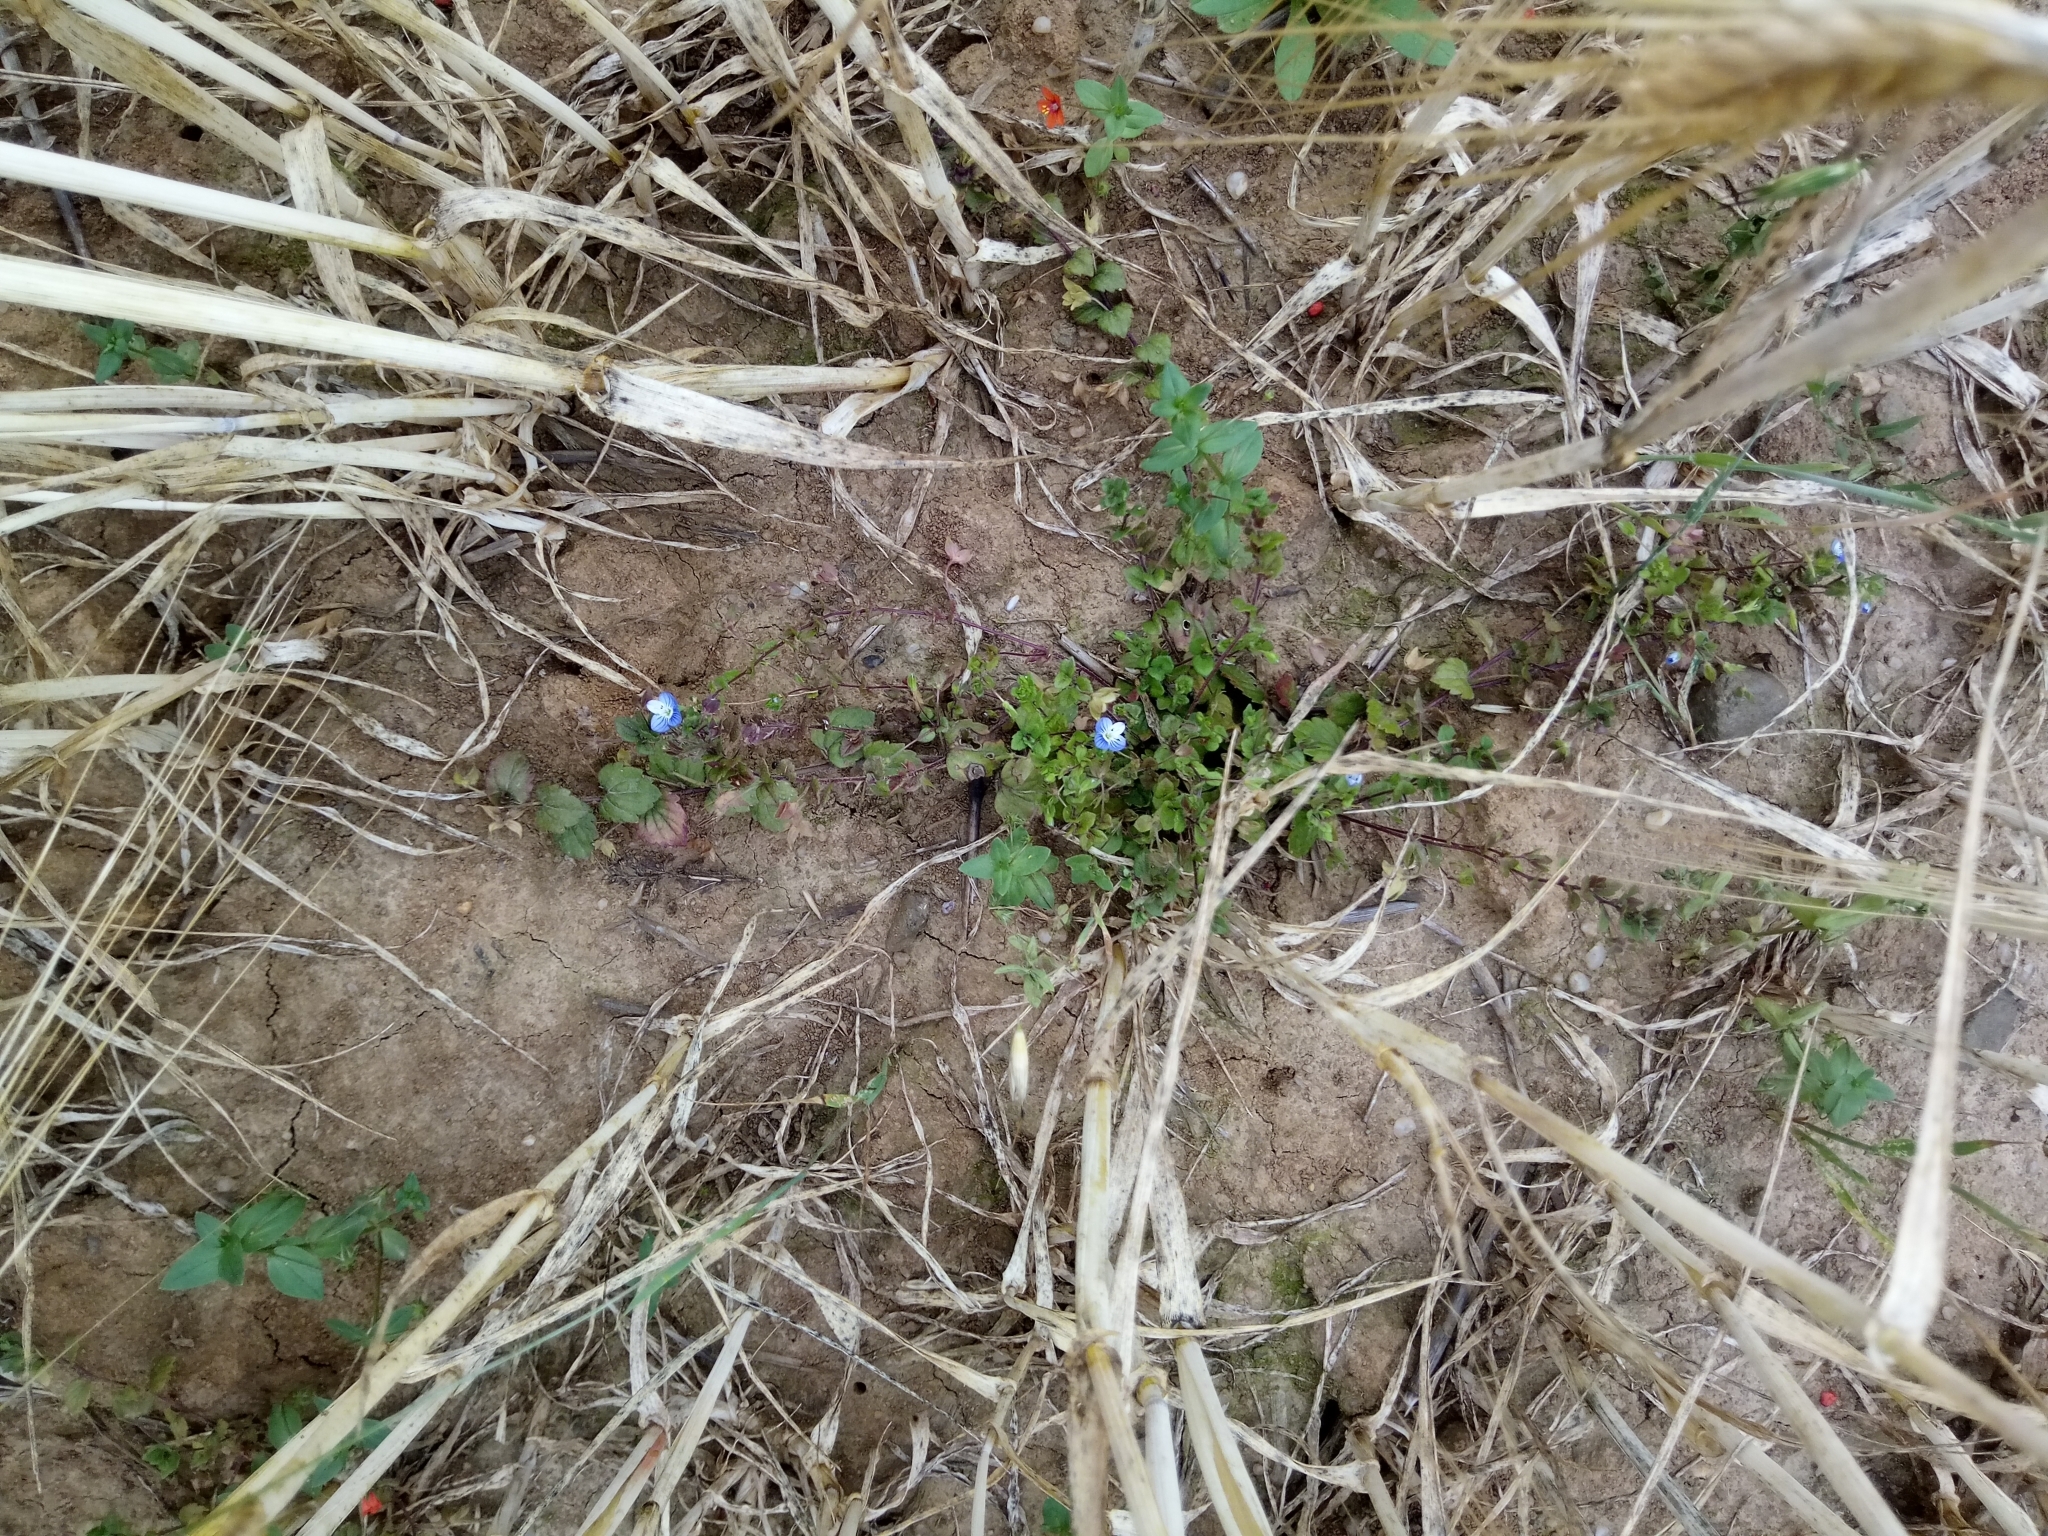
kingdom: Plantae
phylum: Tracheophyta
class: Magnoliopsida
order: Lamiales
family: Plantaginaceae
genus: Veronica
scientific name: Veronica persica
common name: Common field-speedwell
